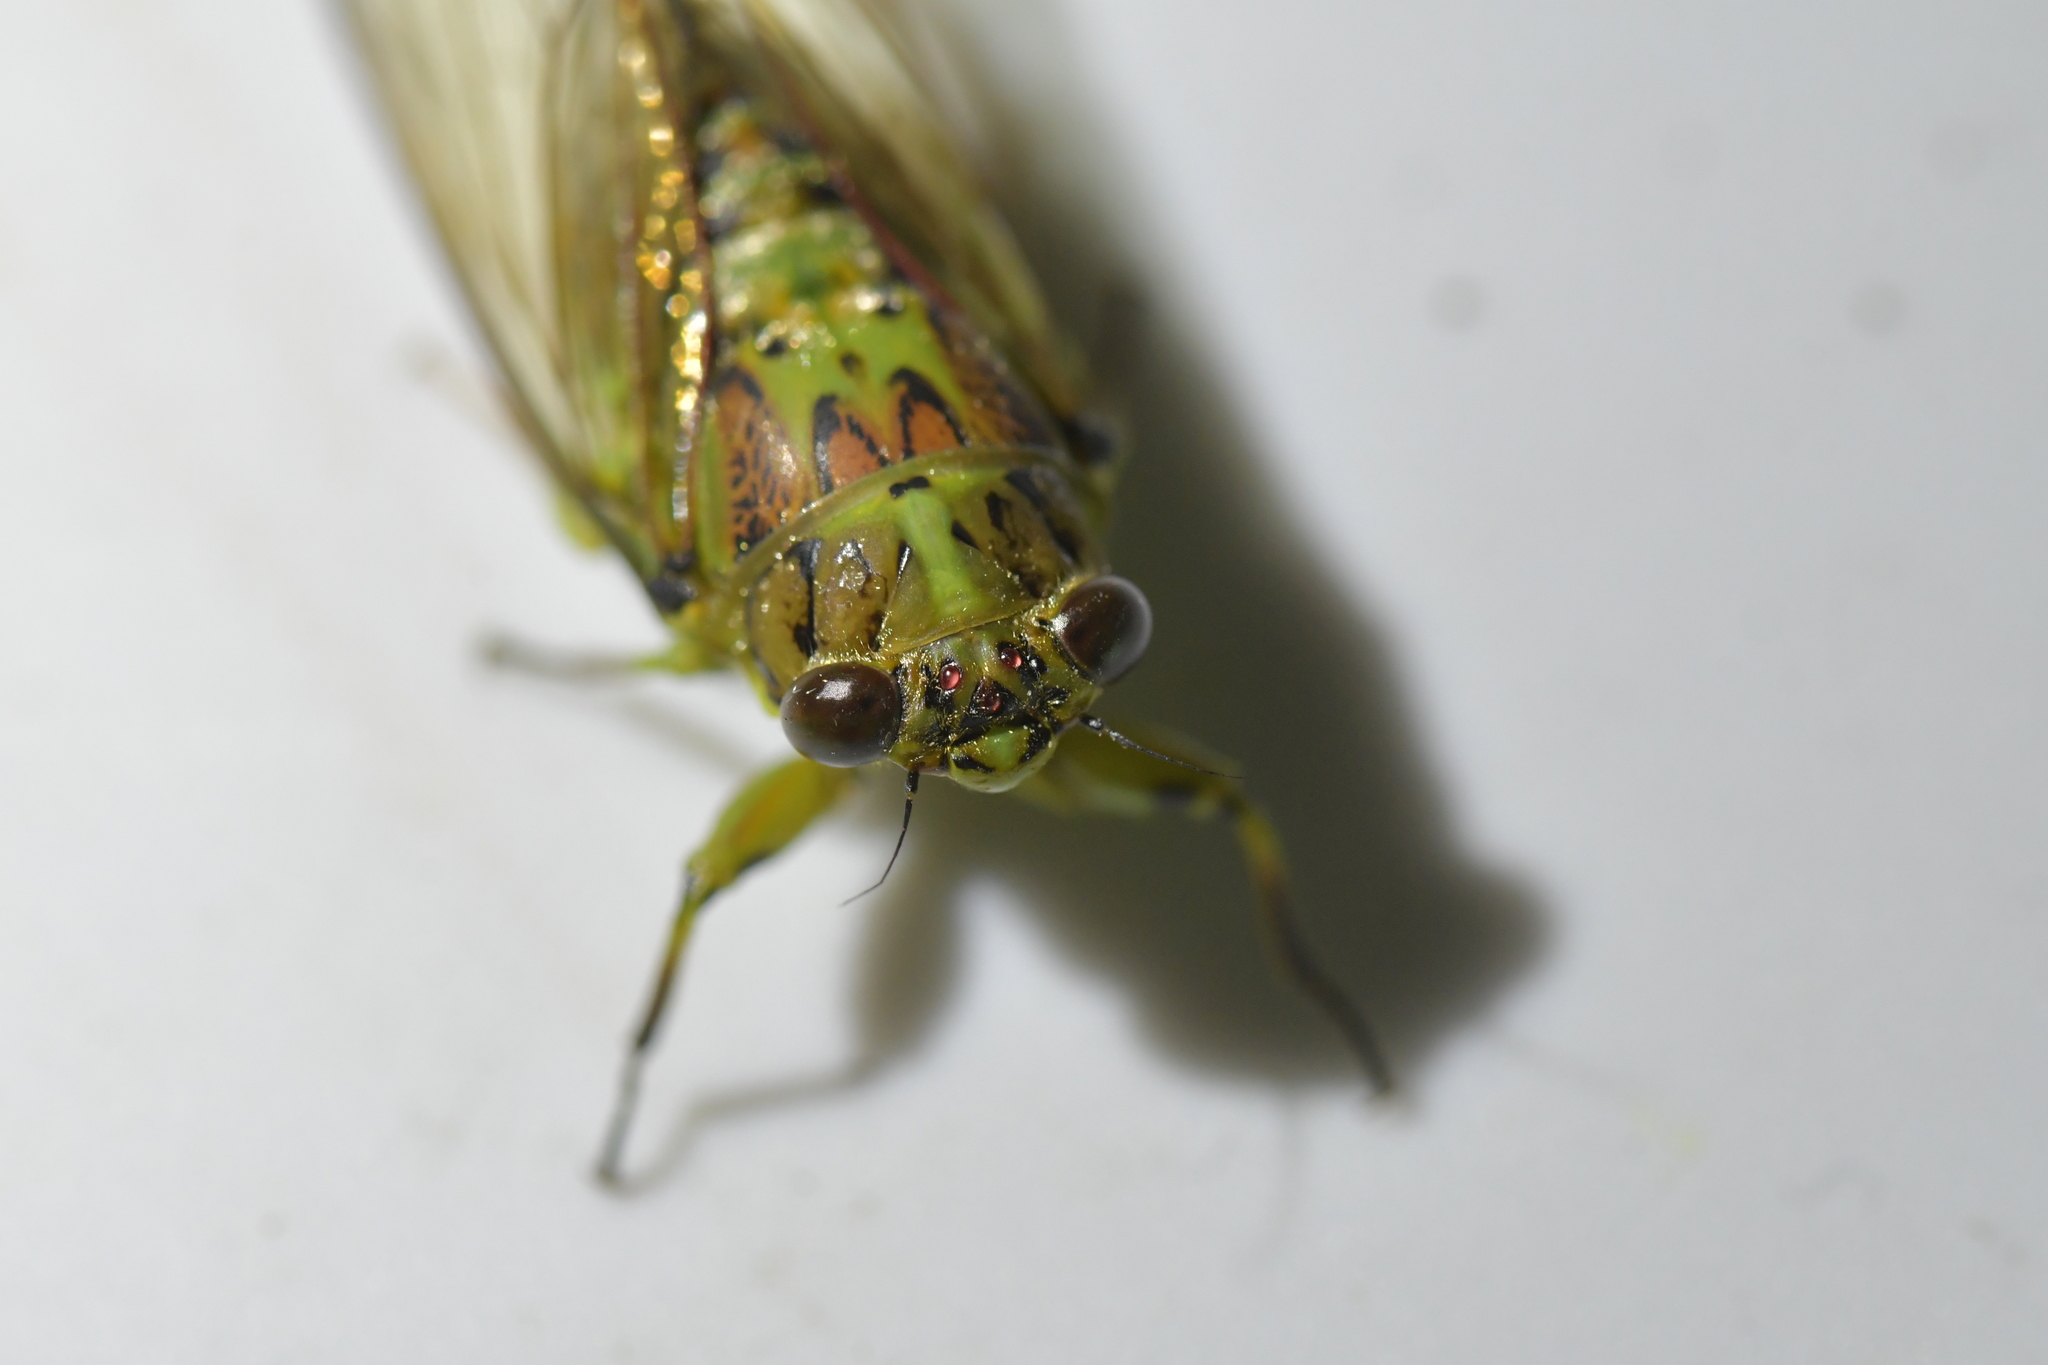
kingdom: Animalia
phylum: Arthropoda
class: Insecta
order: Hemiptera
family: Cicadidae
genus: Kikihia
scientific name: Kikihia scutellaris
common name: Lesser bronze cicada
